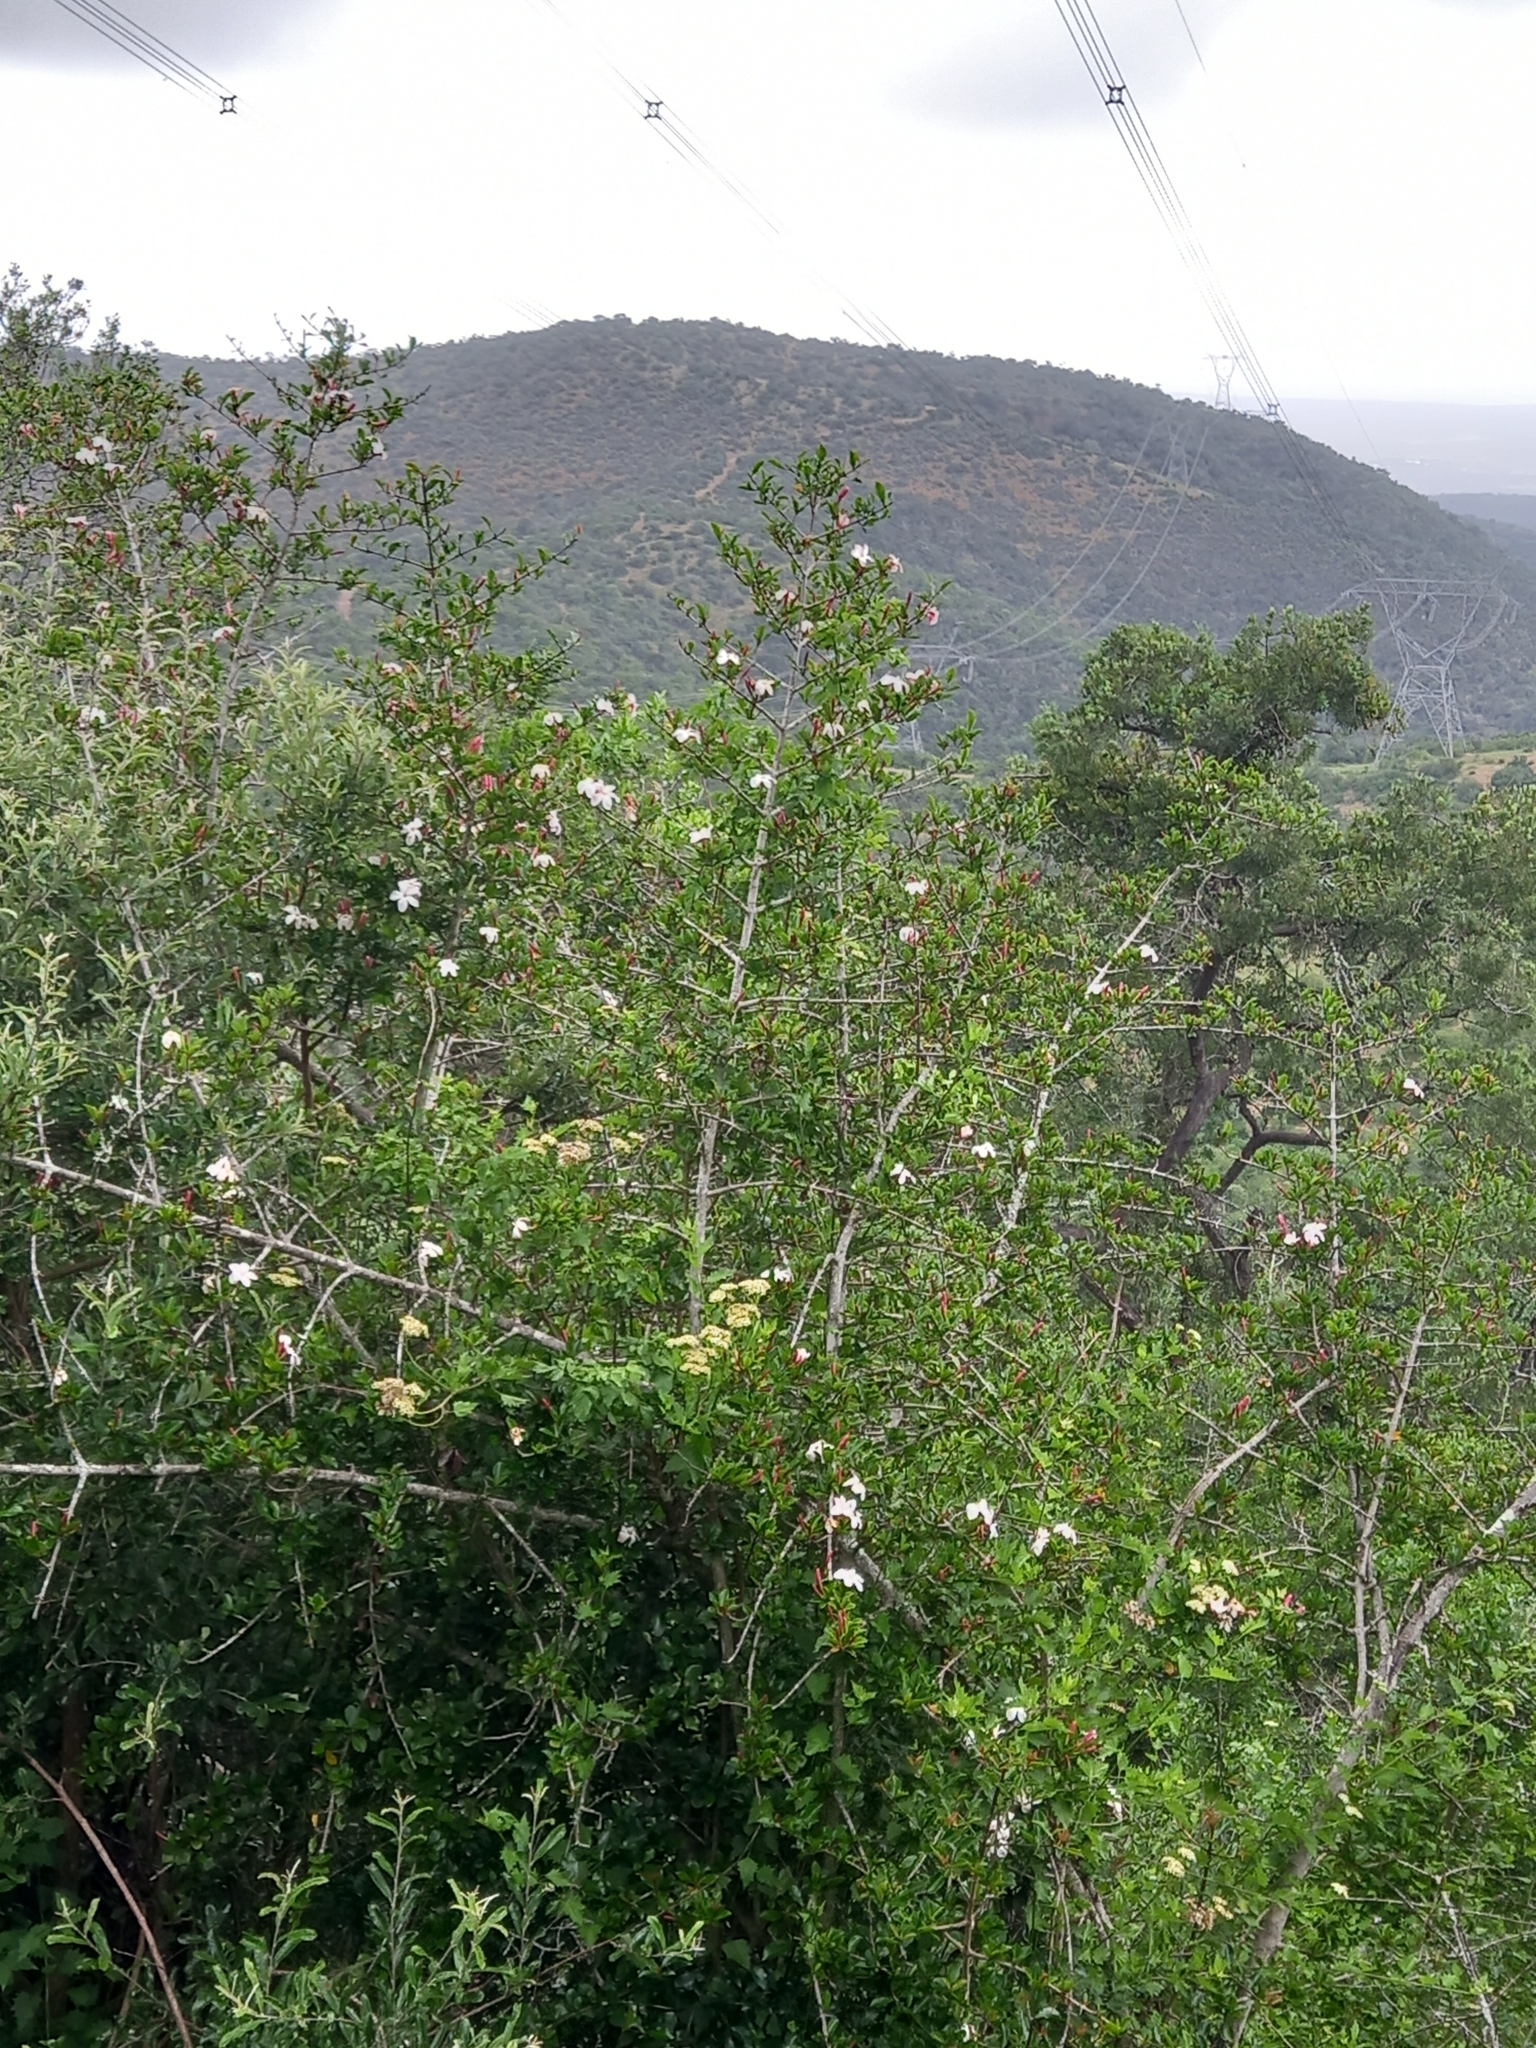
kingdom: Plantae
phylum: Tracheophyta
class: Magnoliopsida
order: Gentianales
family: Rubiaceae
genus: Hyperacanthus
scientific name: Hyperacanthus amoenus
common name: Spiny gardenia
